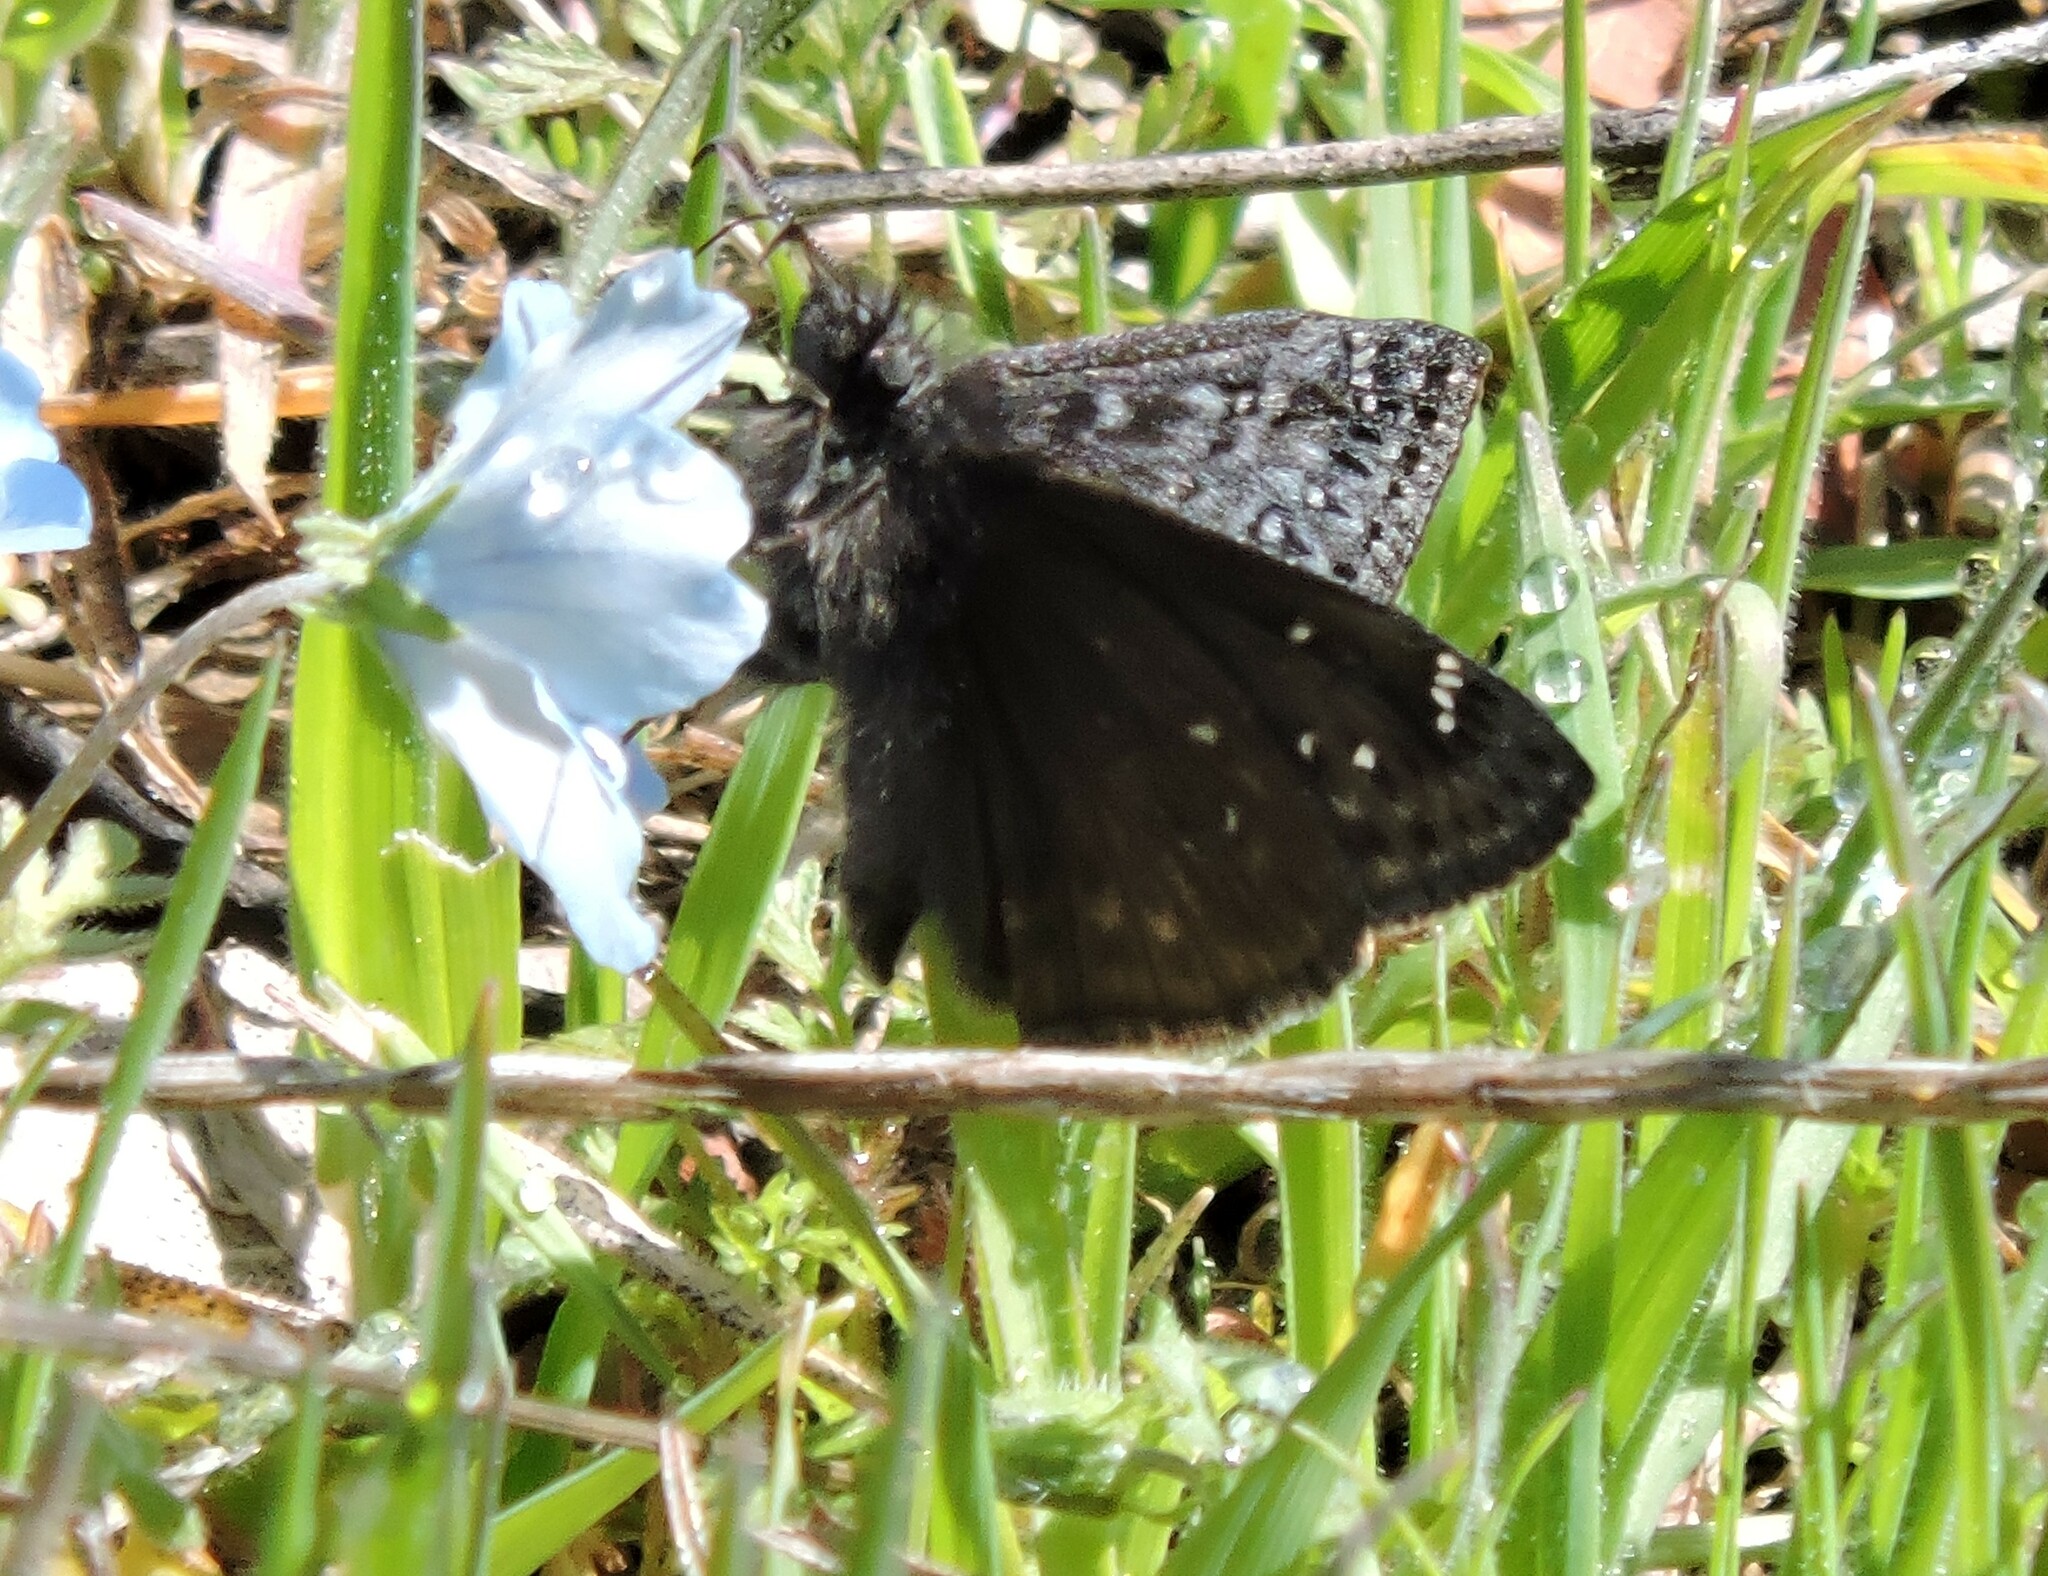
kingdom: Animalia
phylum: Arthropoda
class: Insecta
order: Lepidoptera
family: Hesperiidae
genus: Erynnis
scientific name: Erynnis propertius
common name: Propertius duskywing
